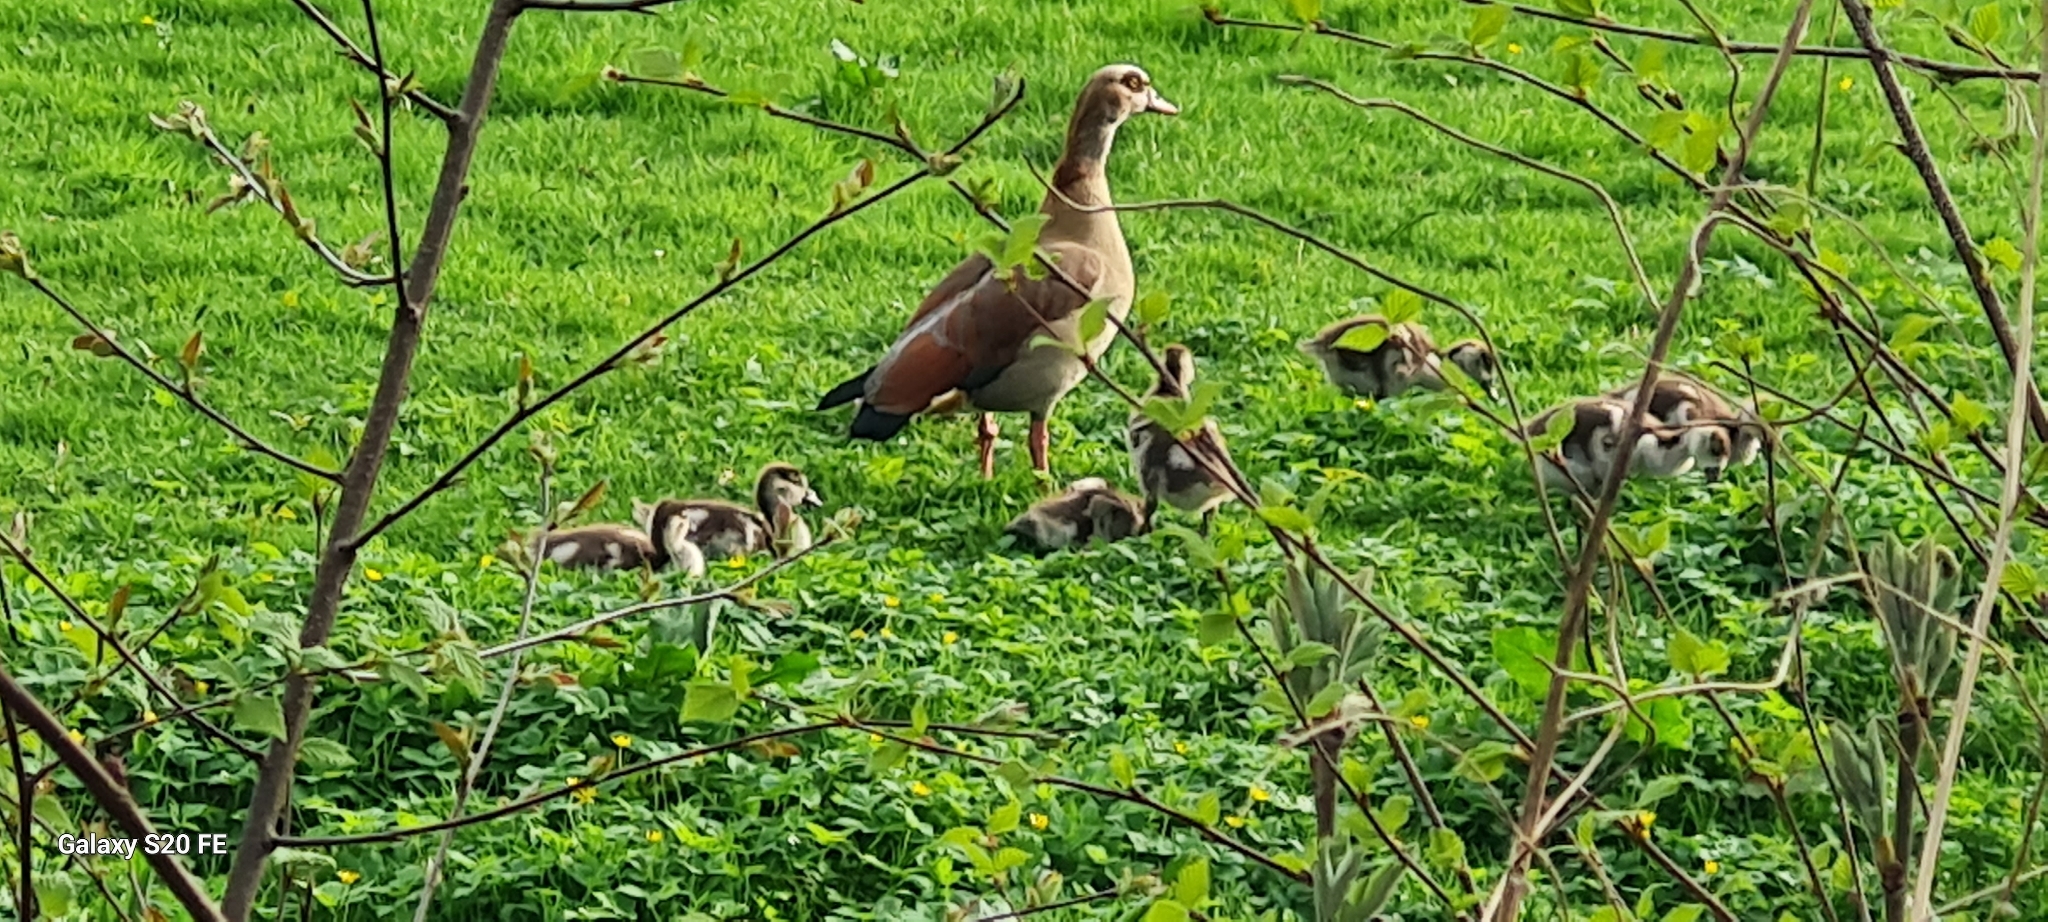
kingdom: Animalia
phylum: Chordata
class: Aves
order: Anseriformes
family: Anatidae
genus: Alopochen
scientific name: Alopochen aegyptiaca
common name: Egyptian goose
